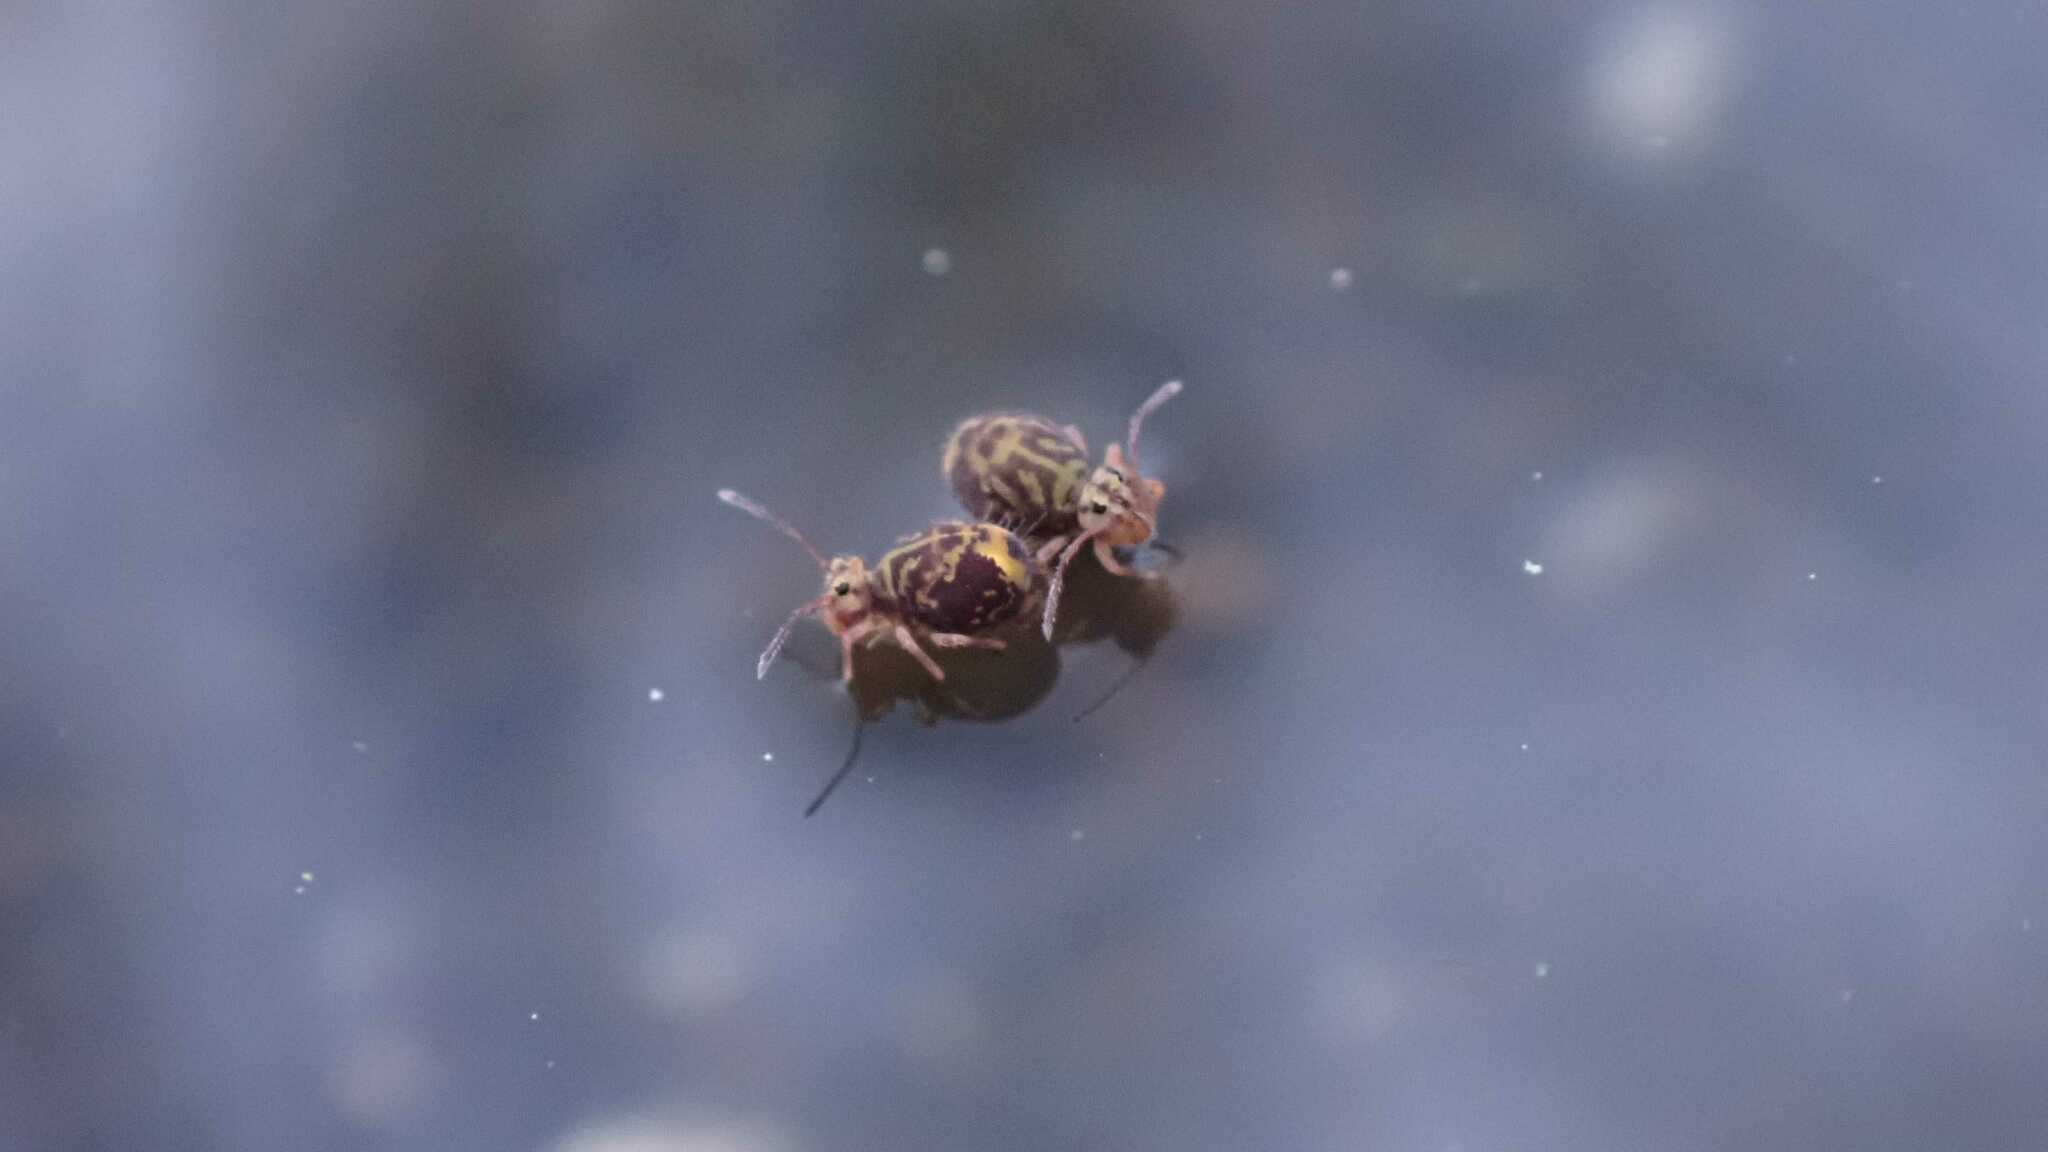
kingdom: Animalia
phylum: Arthropoda
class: Collembola
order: Symphypleona
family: Dicyrtomidae
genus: Dicyrtomina
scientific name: Dicyrtomina ornata
